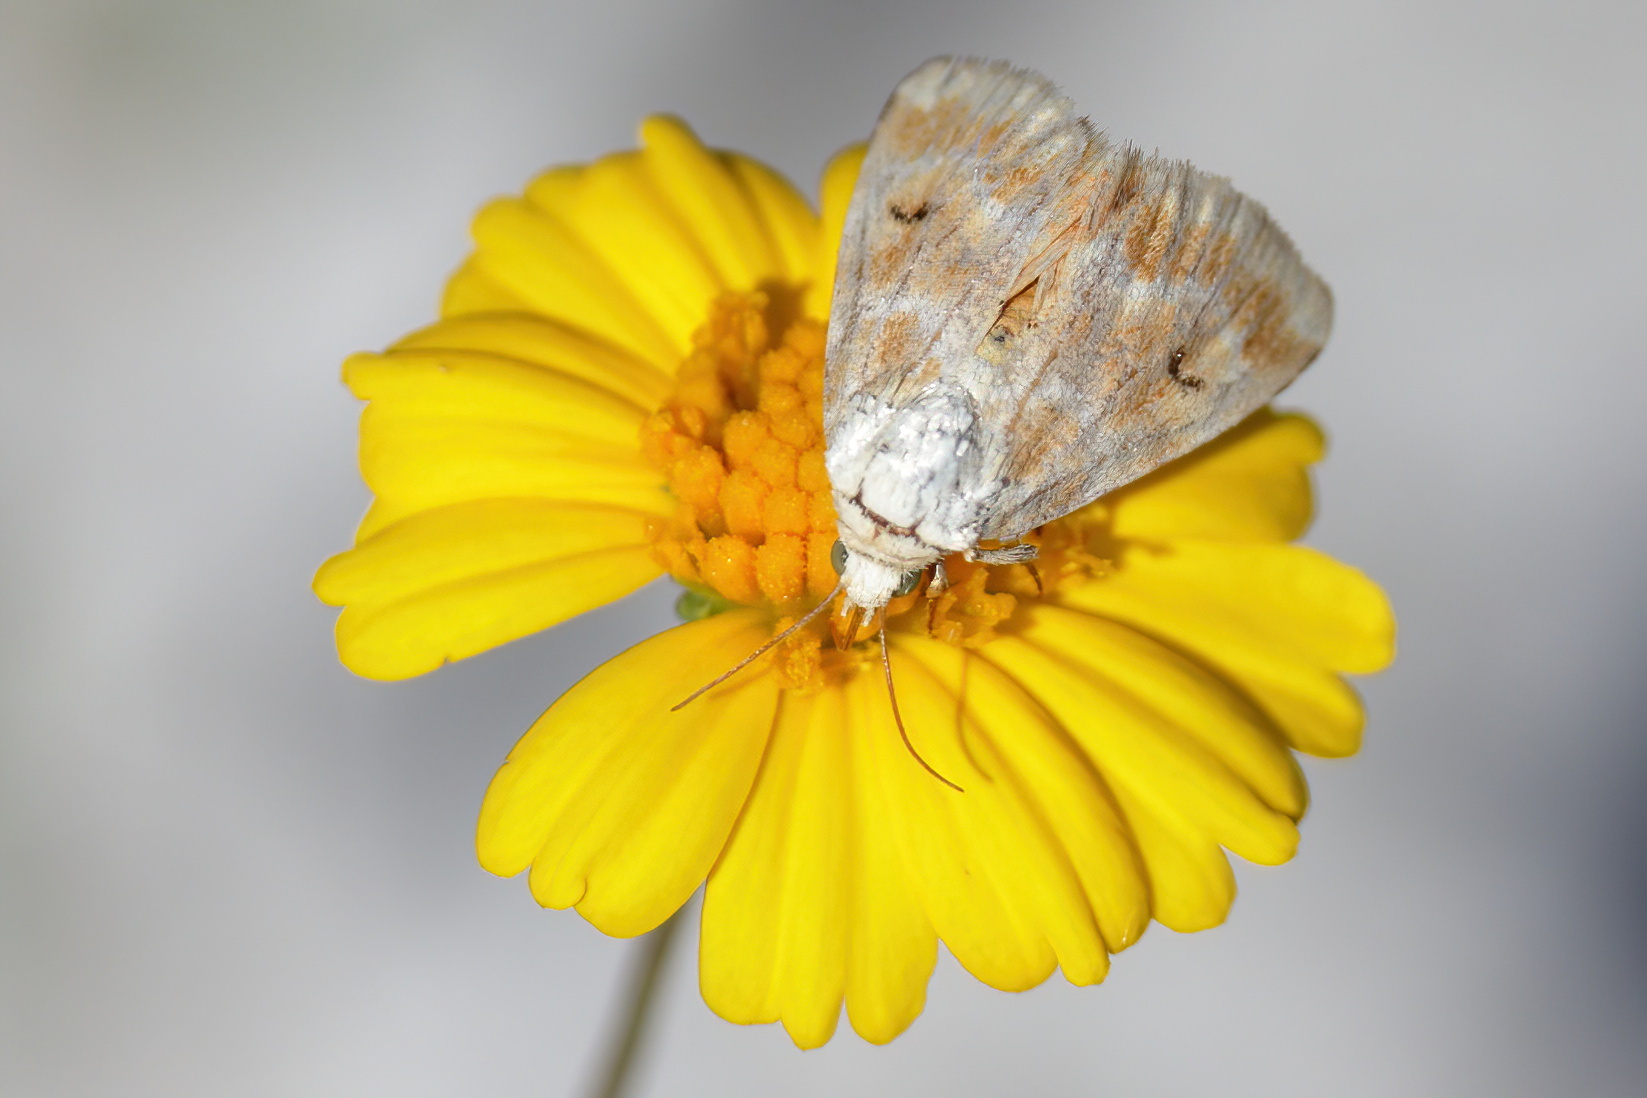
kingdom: Animalia
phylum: Arthropoda
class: Insecta
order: Lepidoptera
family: Noctuidae
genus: Schinia
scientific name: Schinia nundina
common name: Goldenrod flower moth
